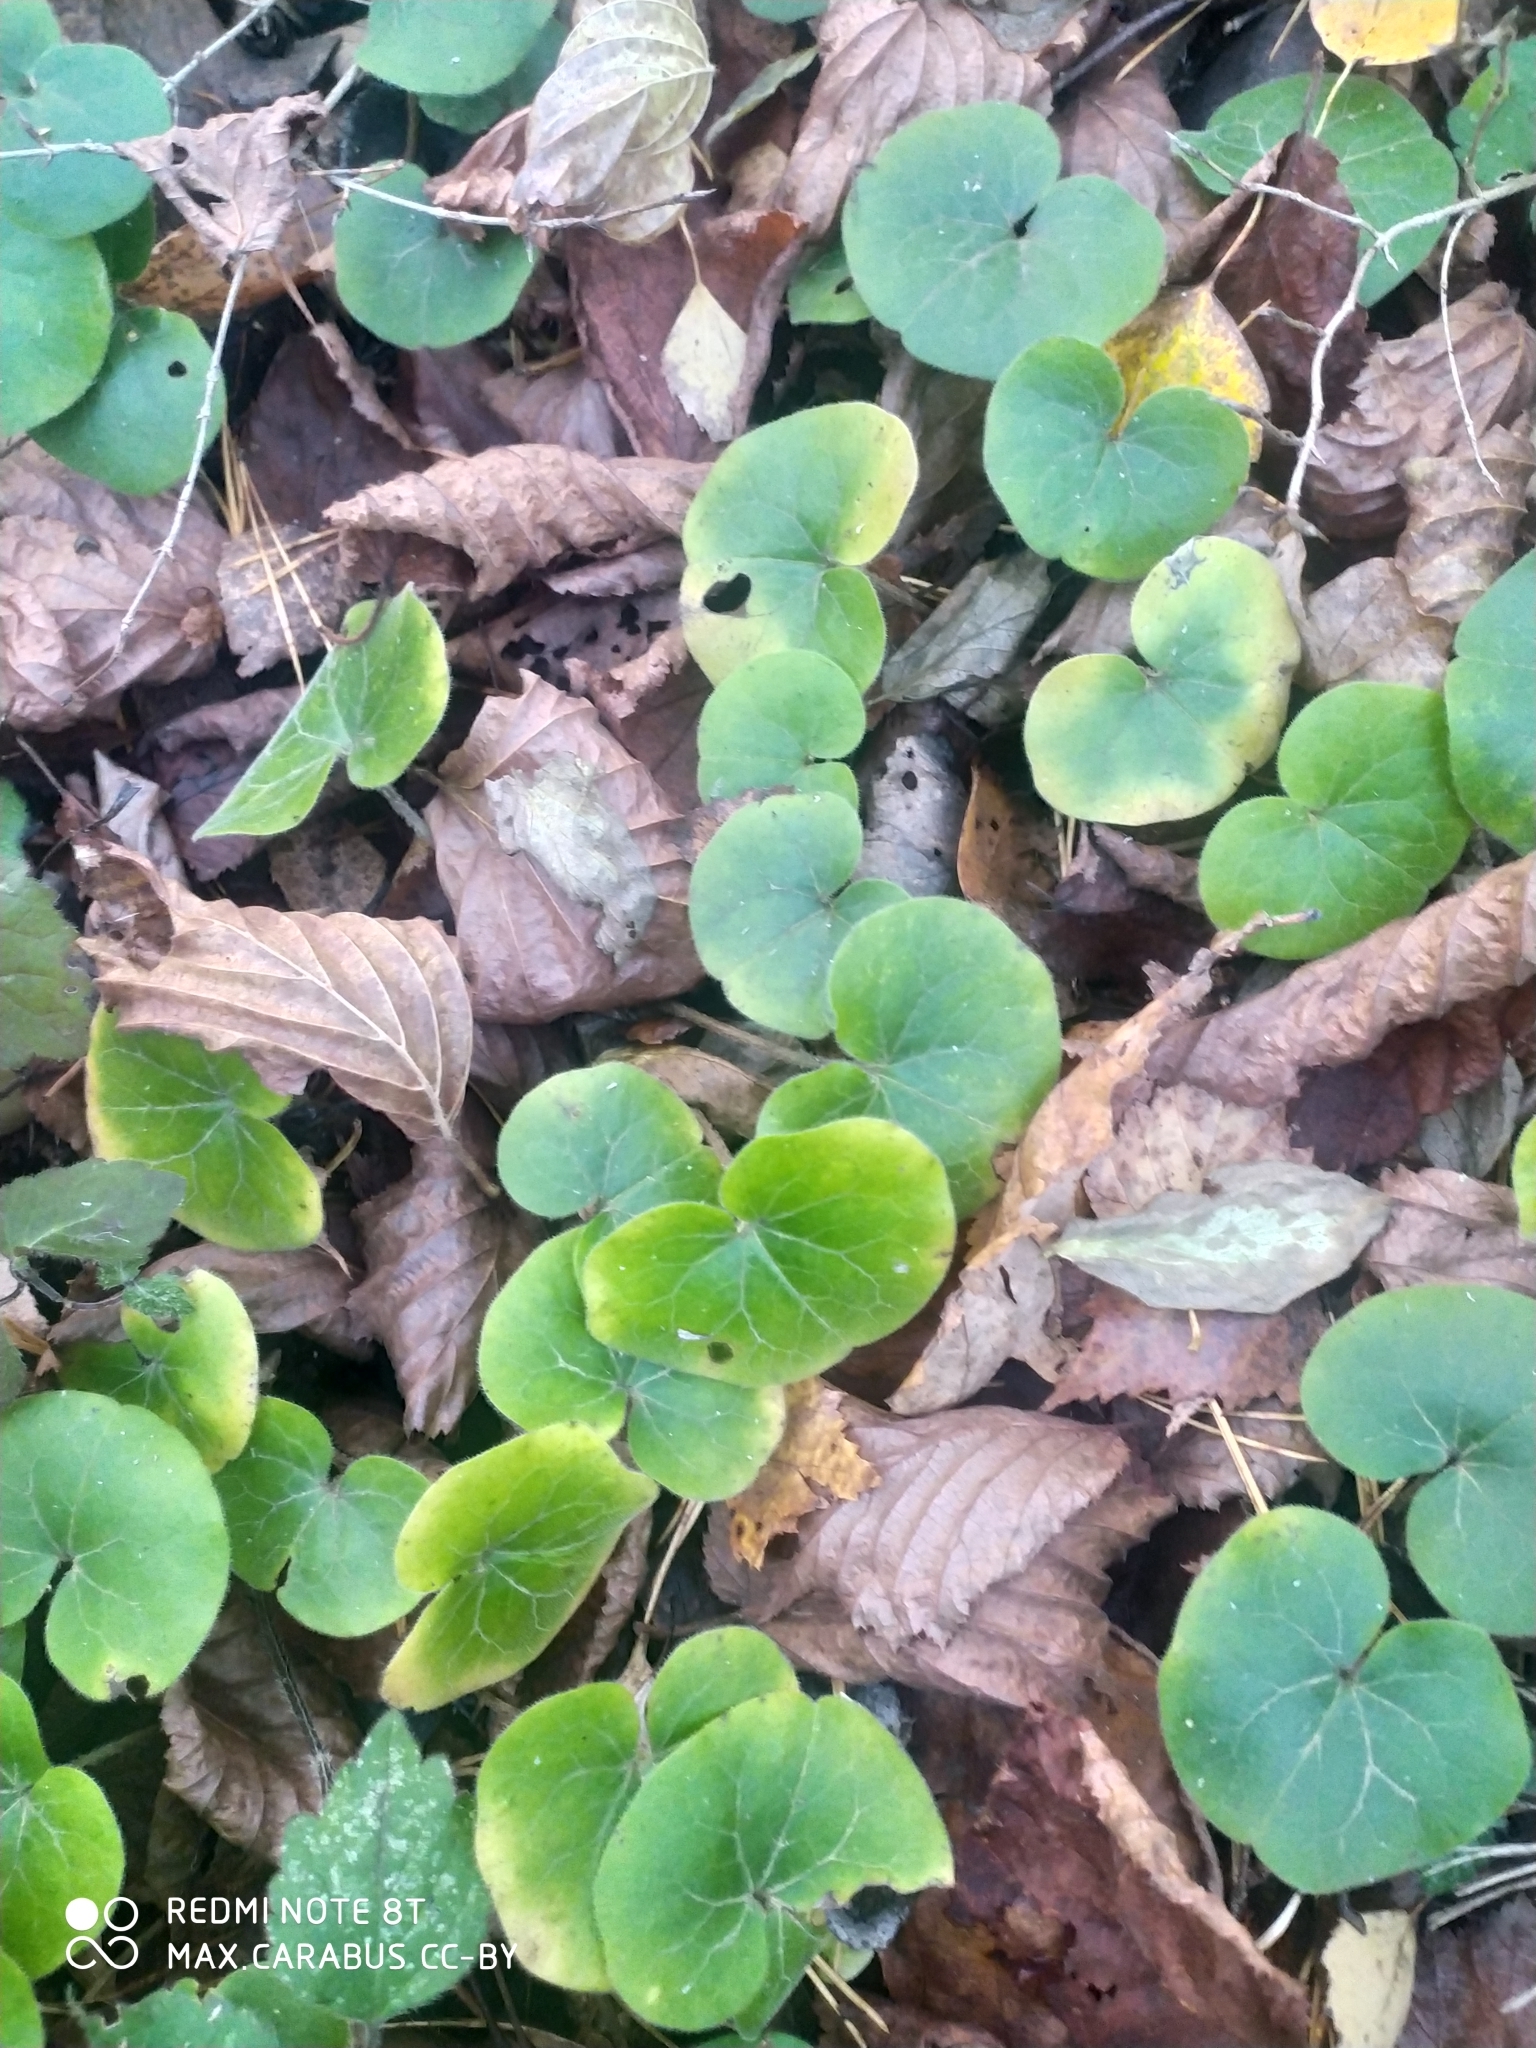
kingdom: Plantae
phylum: Tracheophyta
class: Magnoliopsida
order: Piperales
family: Aristolochiaceae
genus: Asarum
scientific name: Asarum europaeum
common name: Asarabacca
